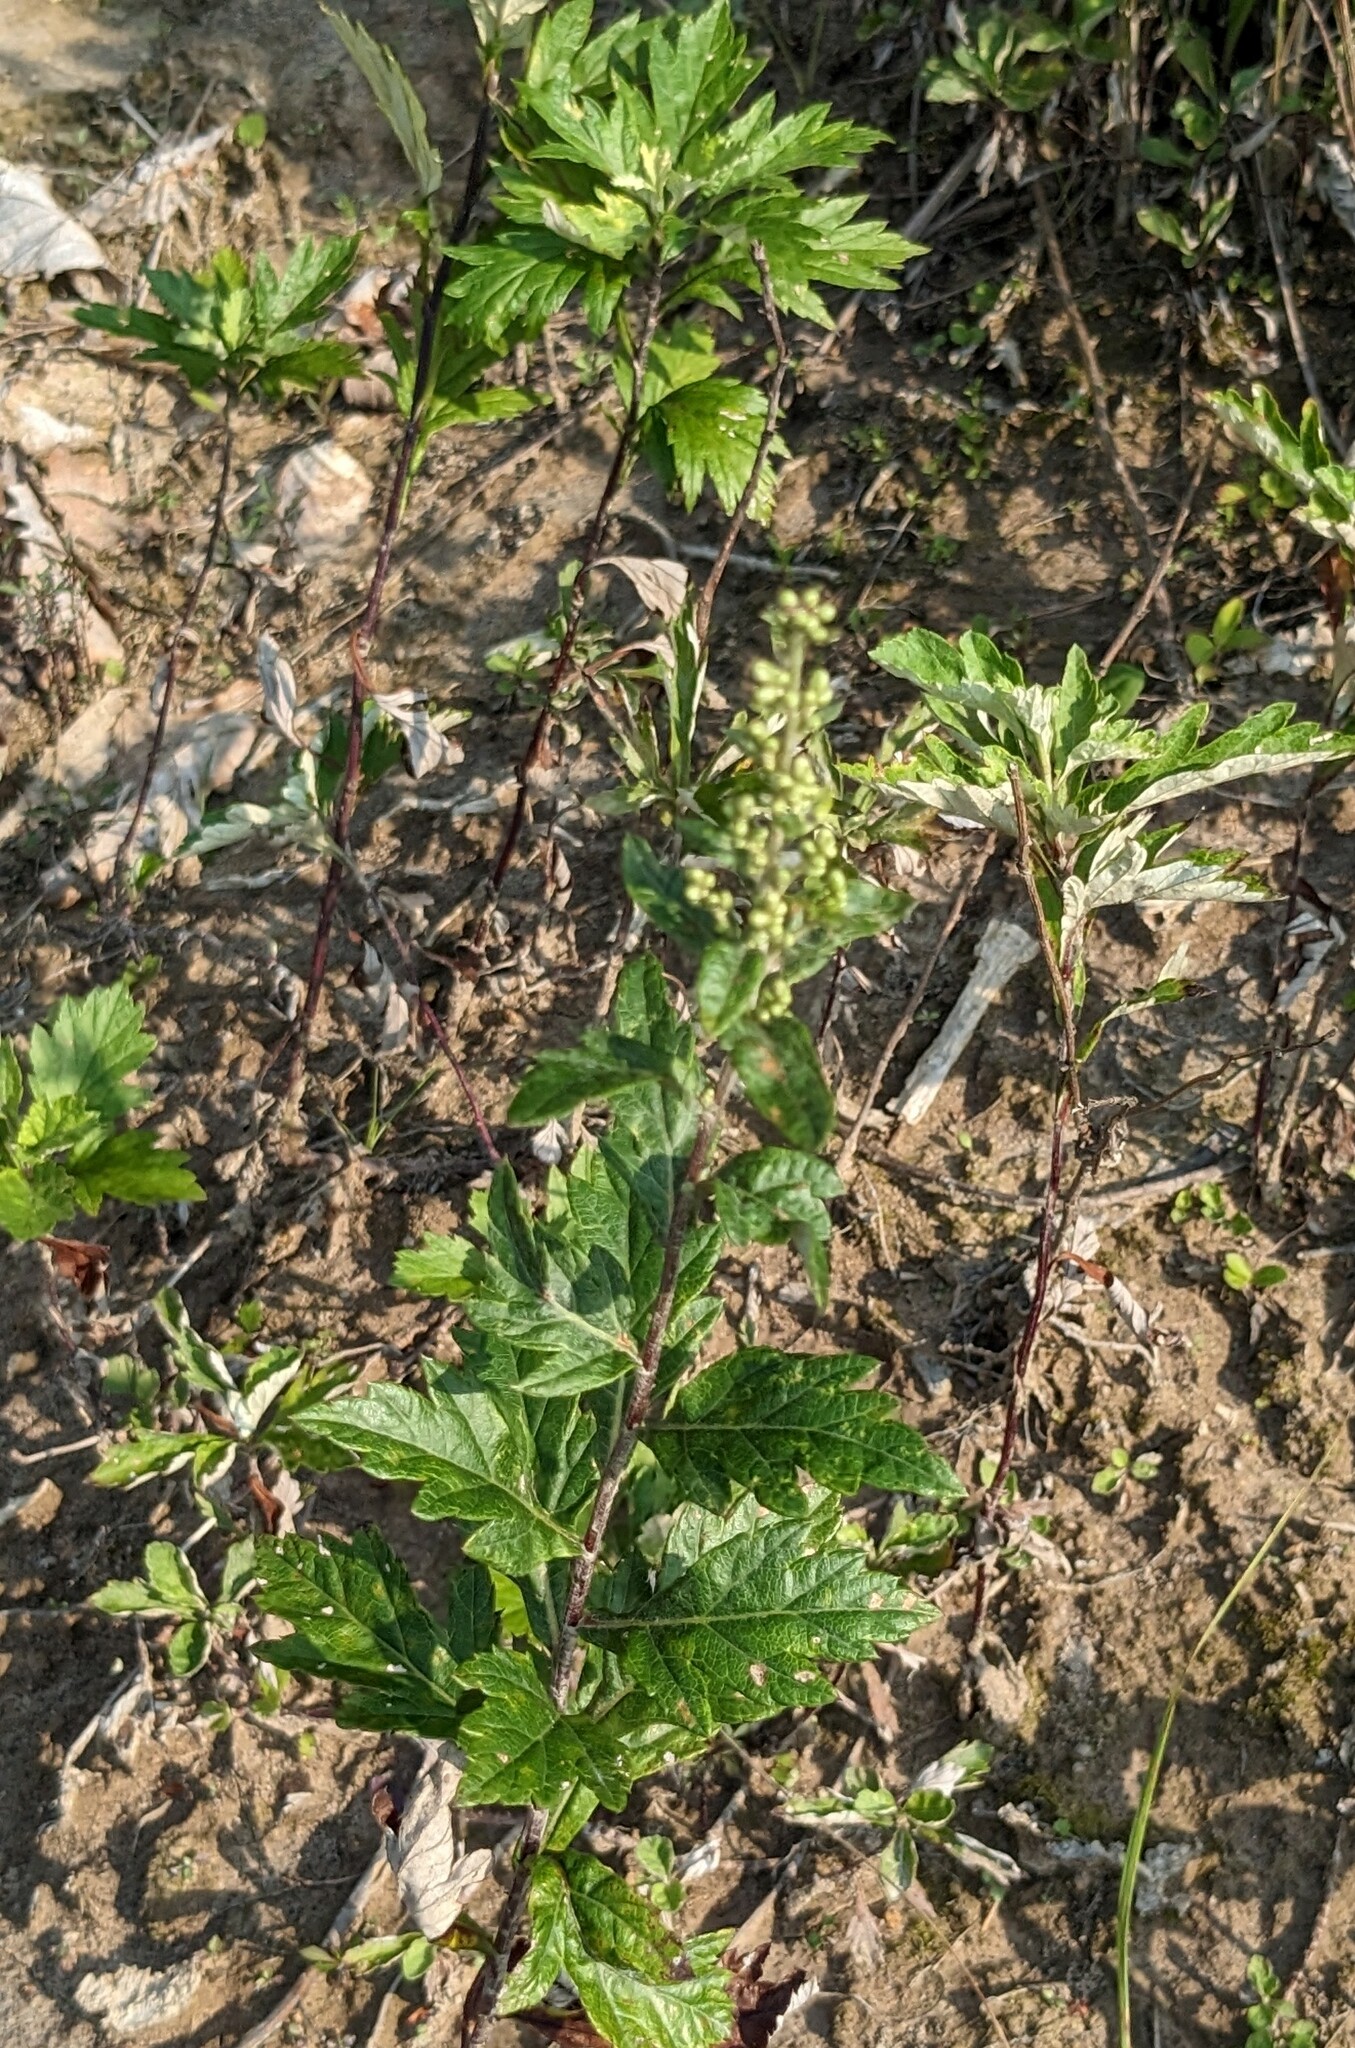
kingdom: Plantae
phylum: Tracheophyta
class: Magnoliopsida
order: Asterales
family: Asteraceae
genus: Artemisia
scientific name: Artemisia stolonifera
